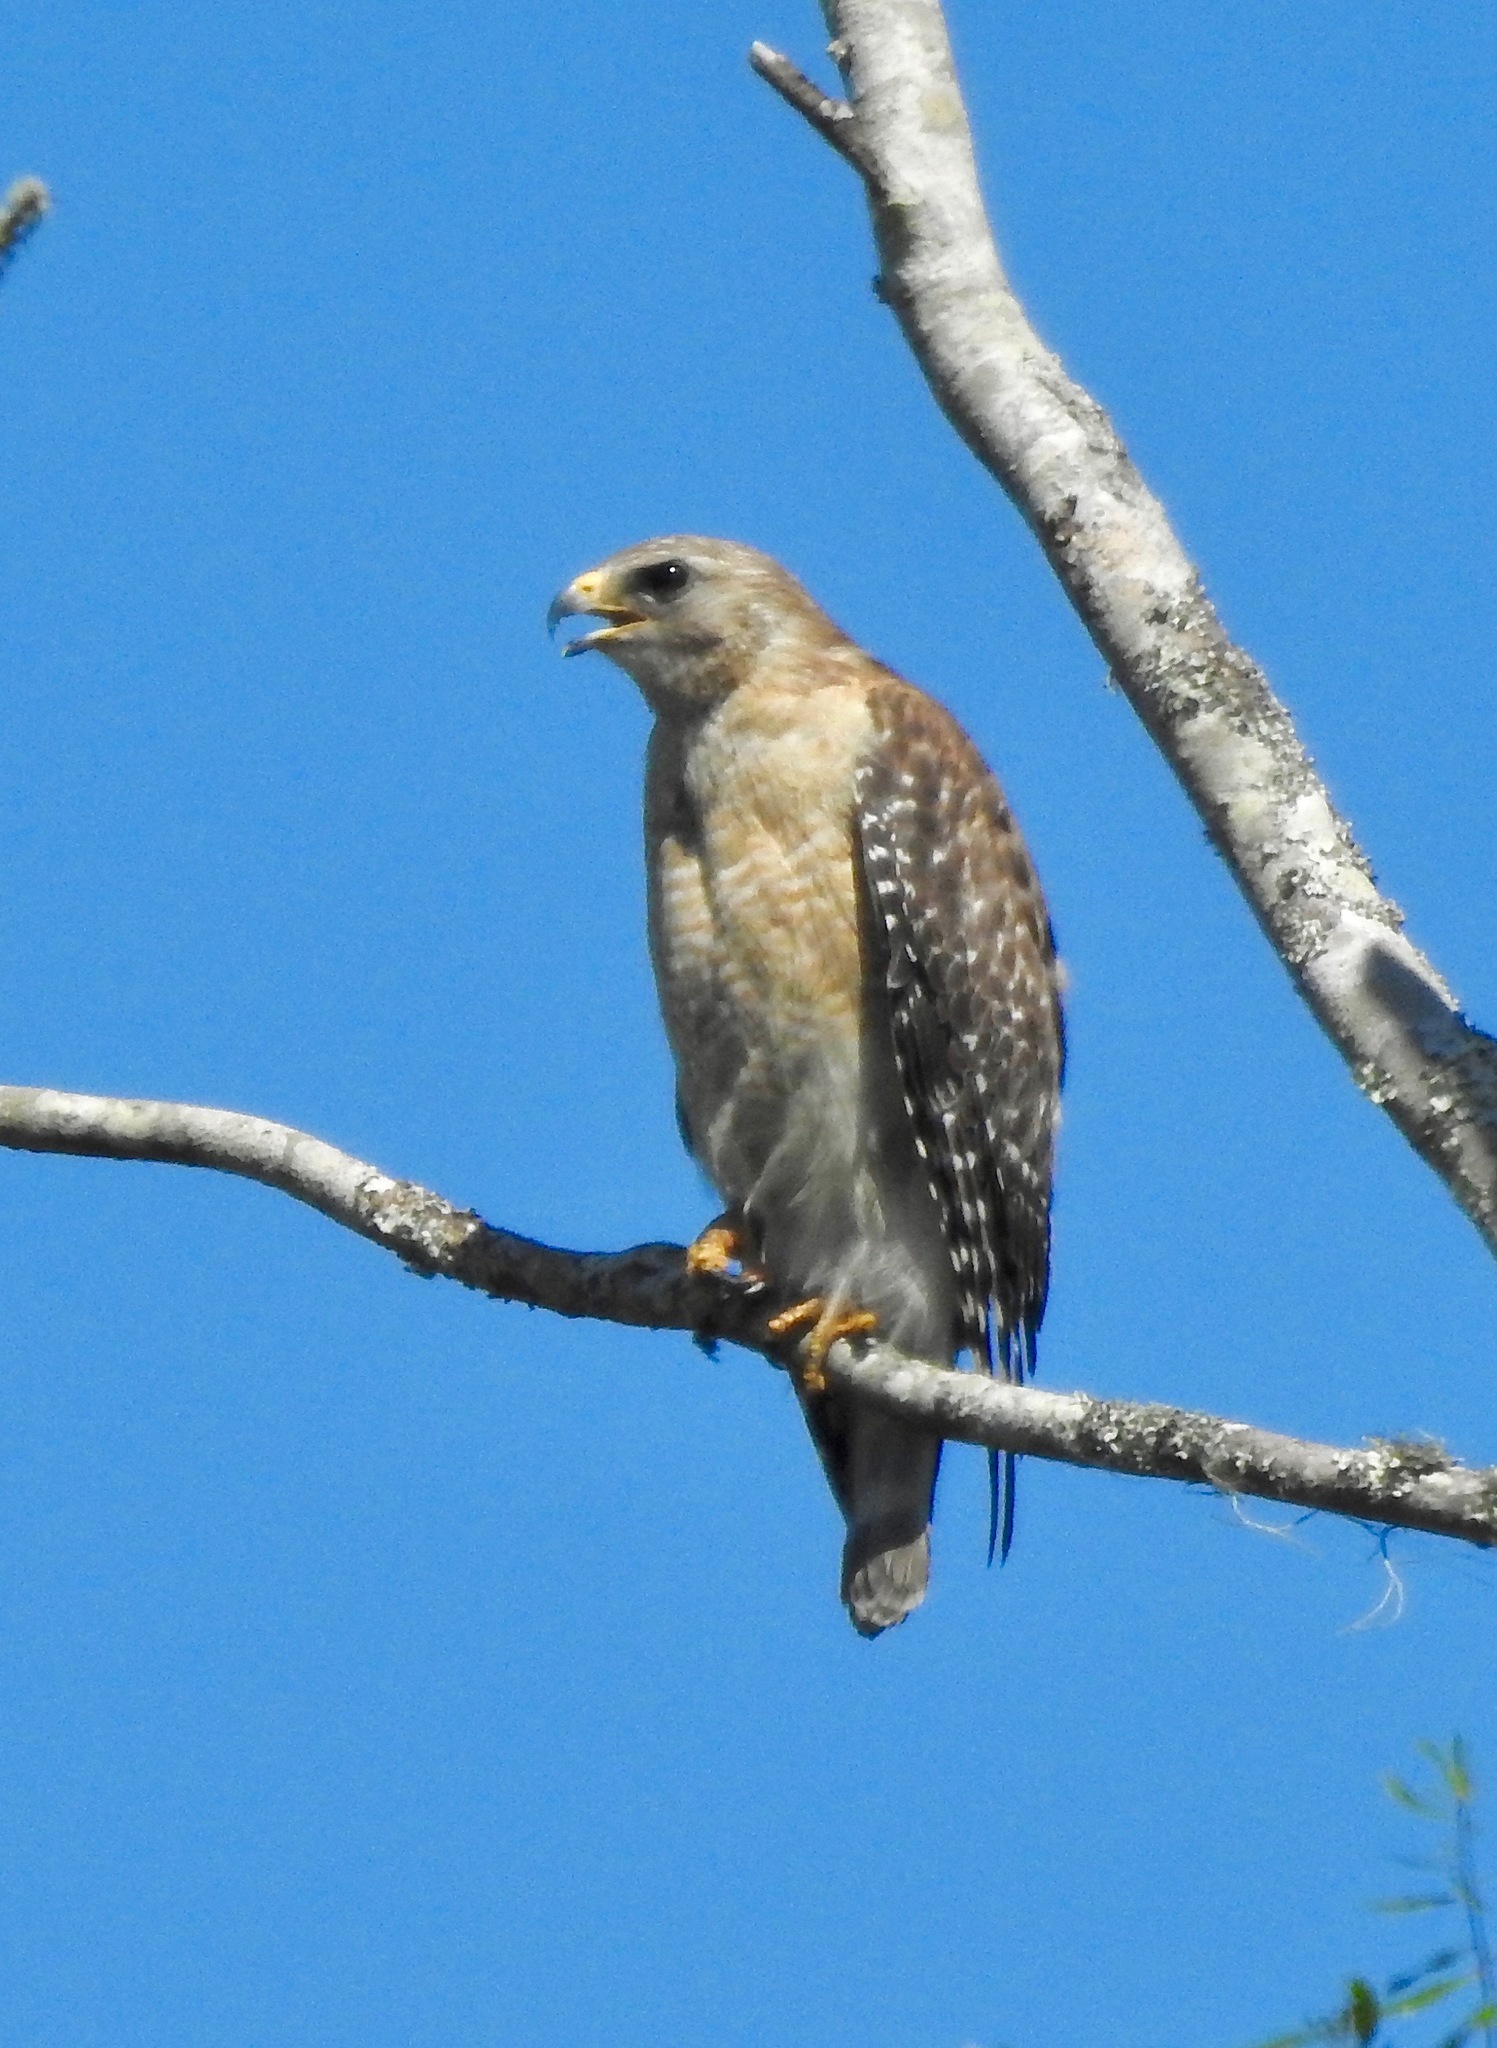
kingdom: Animalia
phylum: Chordata
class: Aves
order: Accipitriformes
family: Accipitridae
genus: Buteo
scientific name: Buteo lineatus
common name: Red-shouldered hawk
